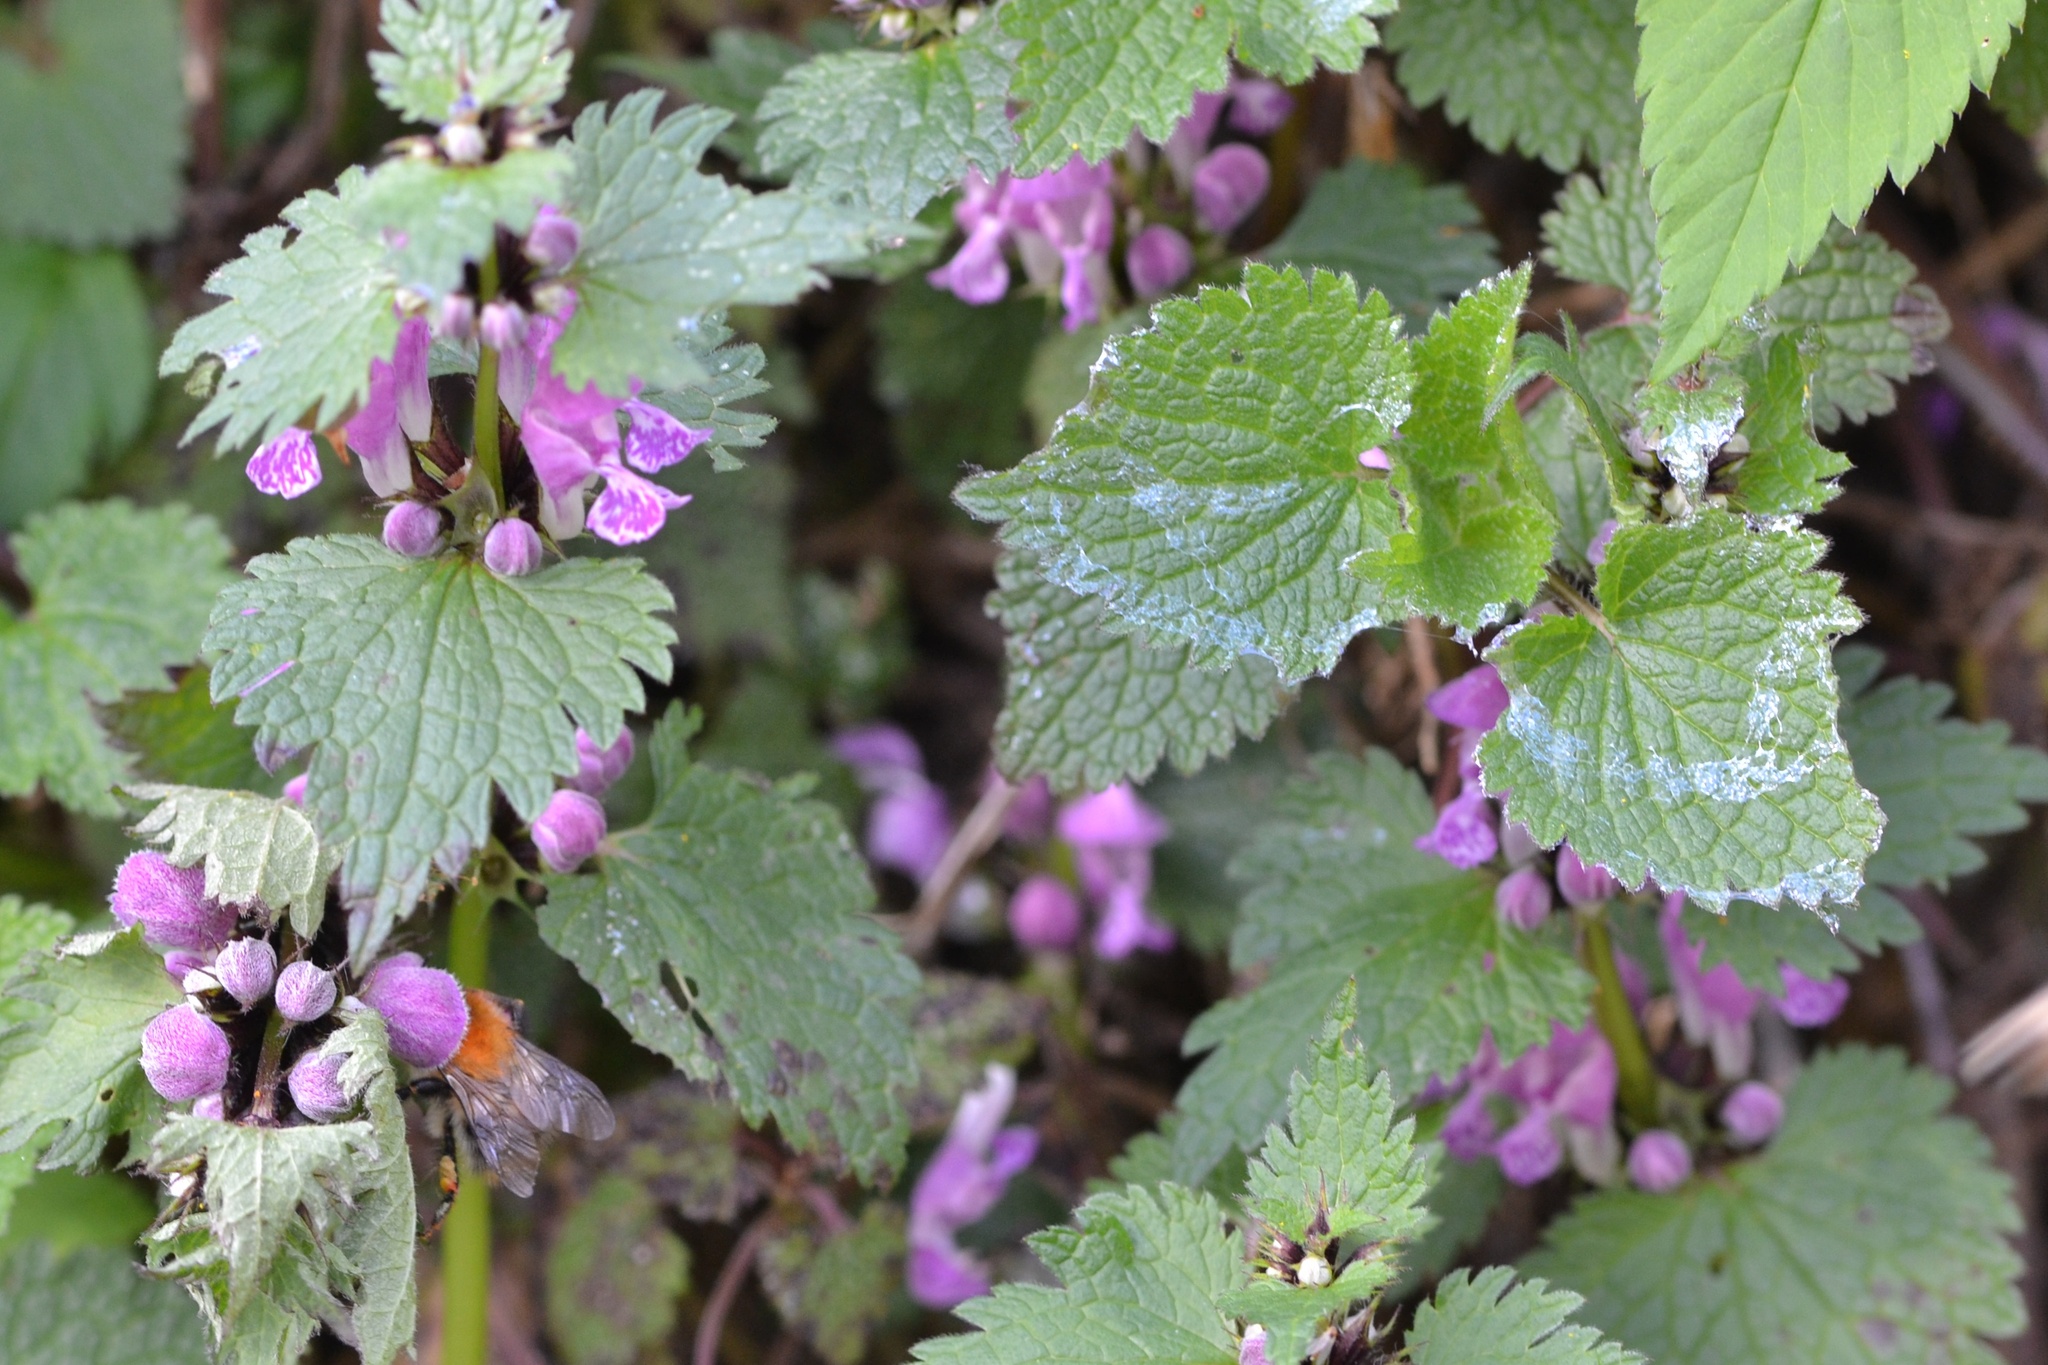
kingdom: Plantae
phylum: Tracheophyta
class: Magnoliopsida
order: Lamiales
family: Lamiaceae
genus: Lamium
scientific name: Lamium maculatum
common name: Spotted dead-nettle
